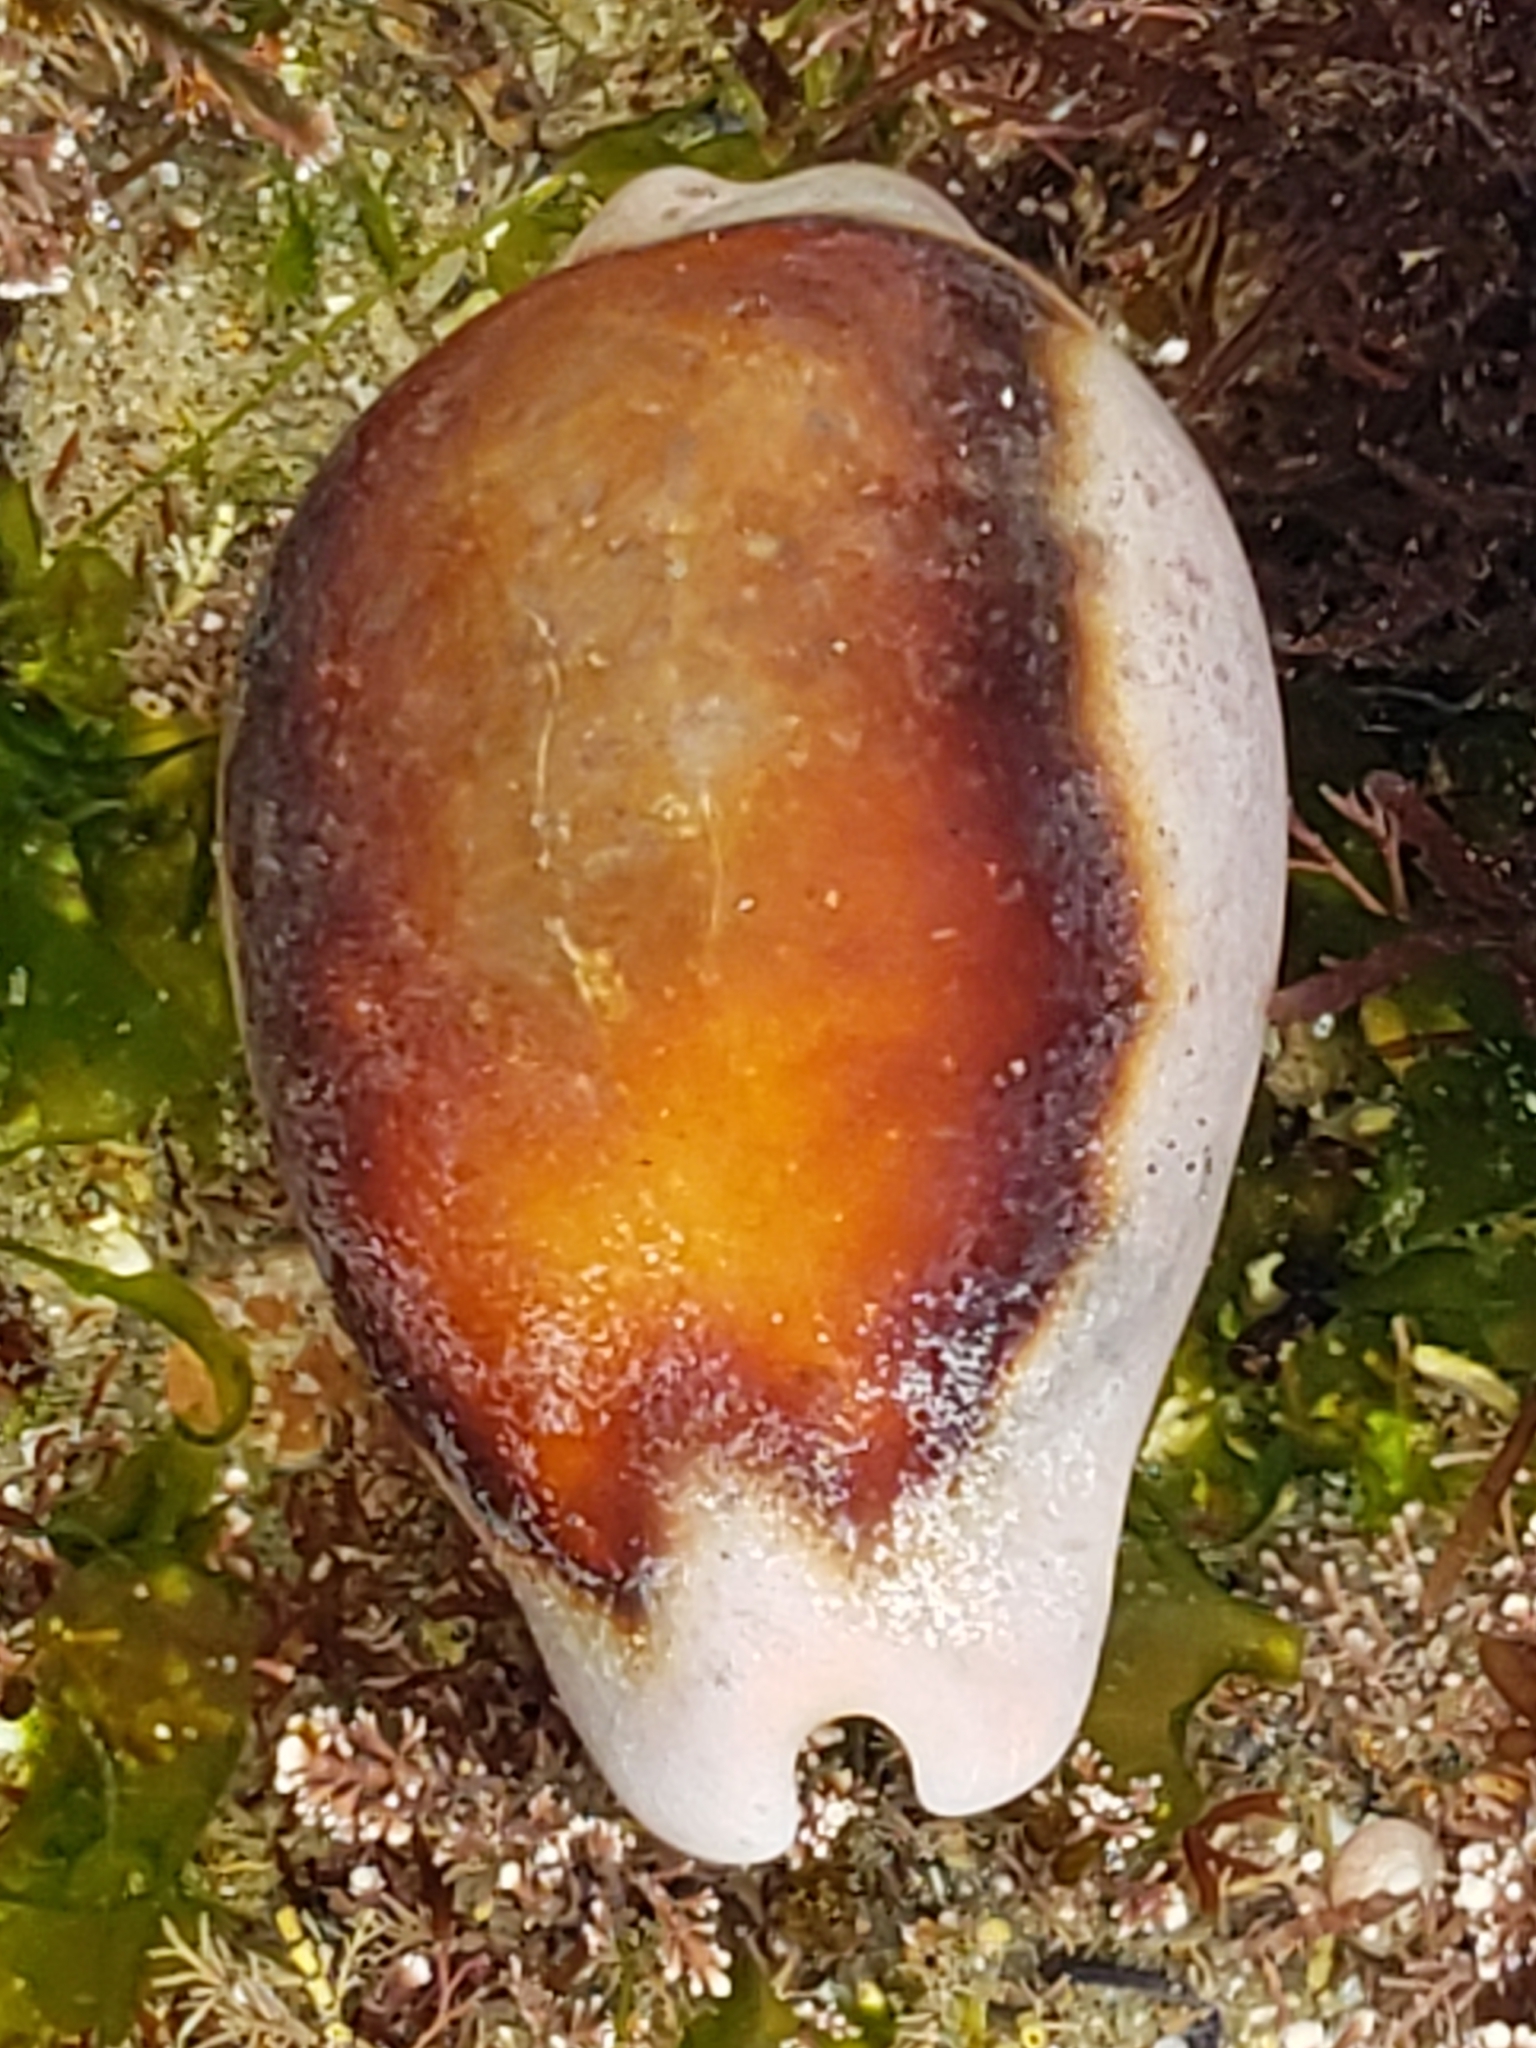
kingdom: Animalia
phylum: Mollusca
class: Gastropoda
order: Littorinimorpha
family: Cypraeidae
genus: Neobernaya
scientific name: Neobernaya spadicea
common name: Chestnut cowrie
